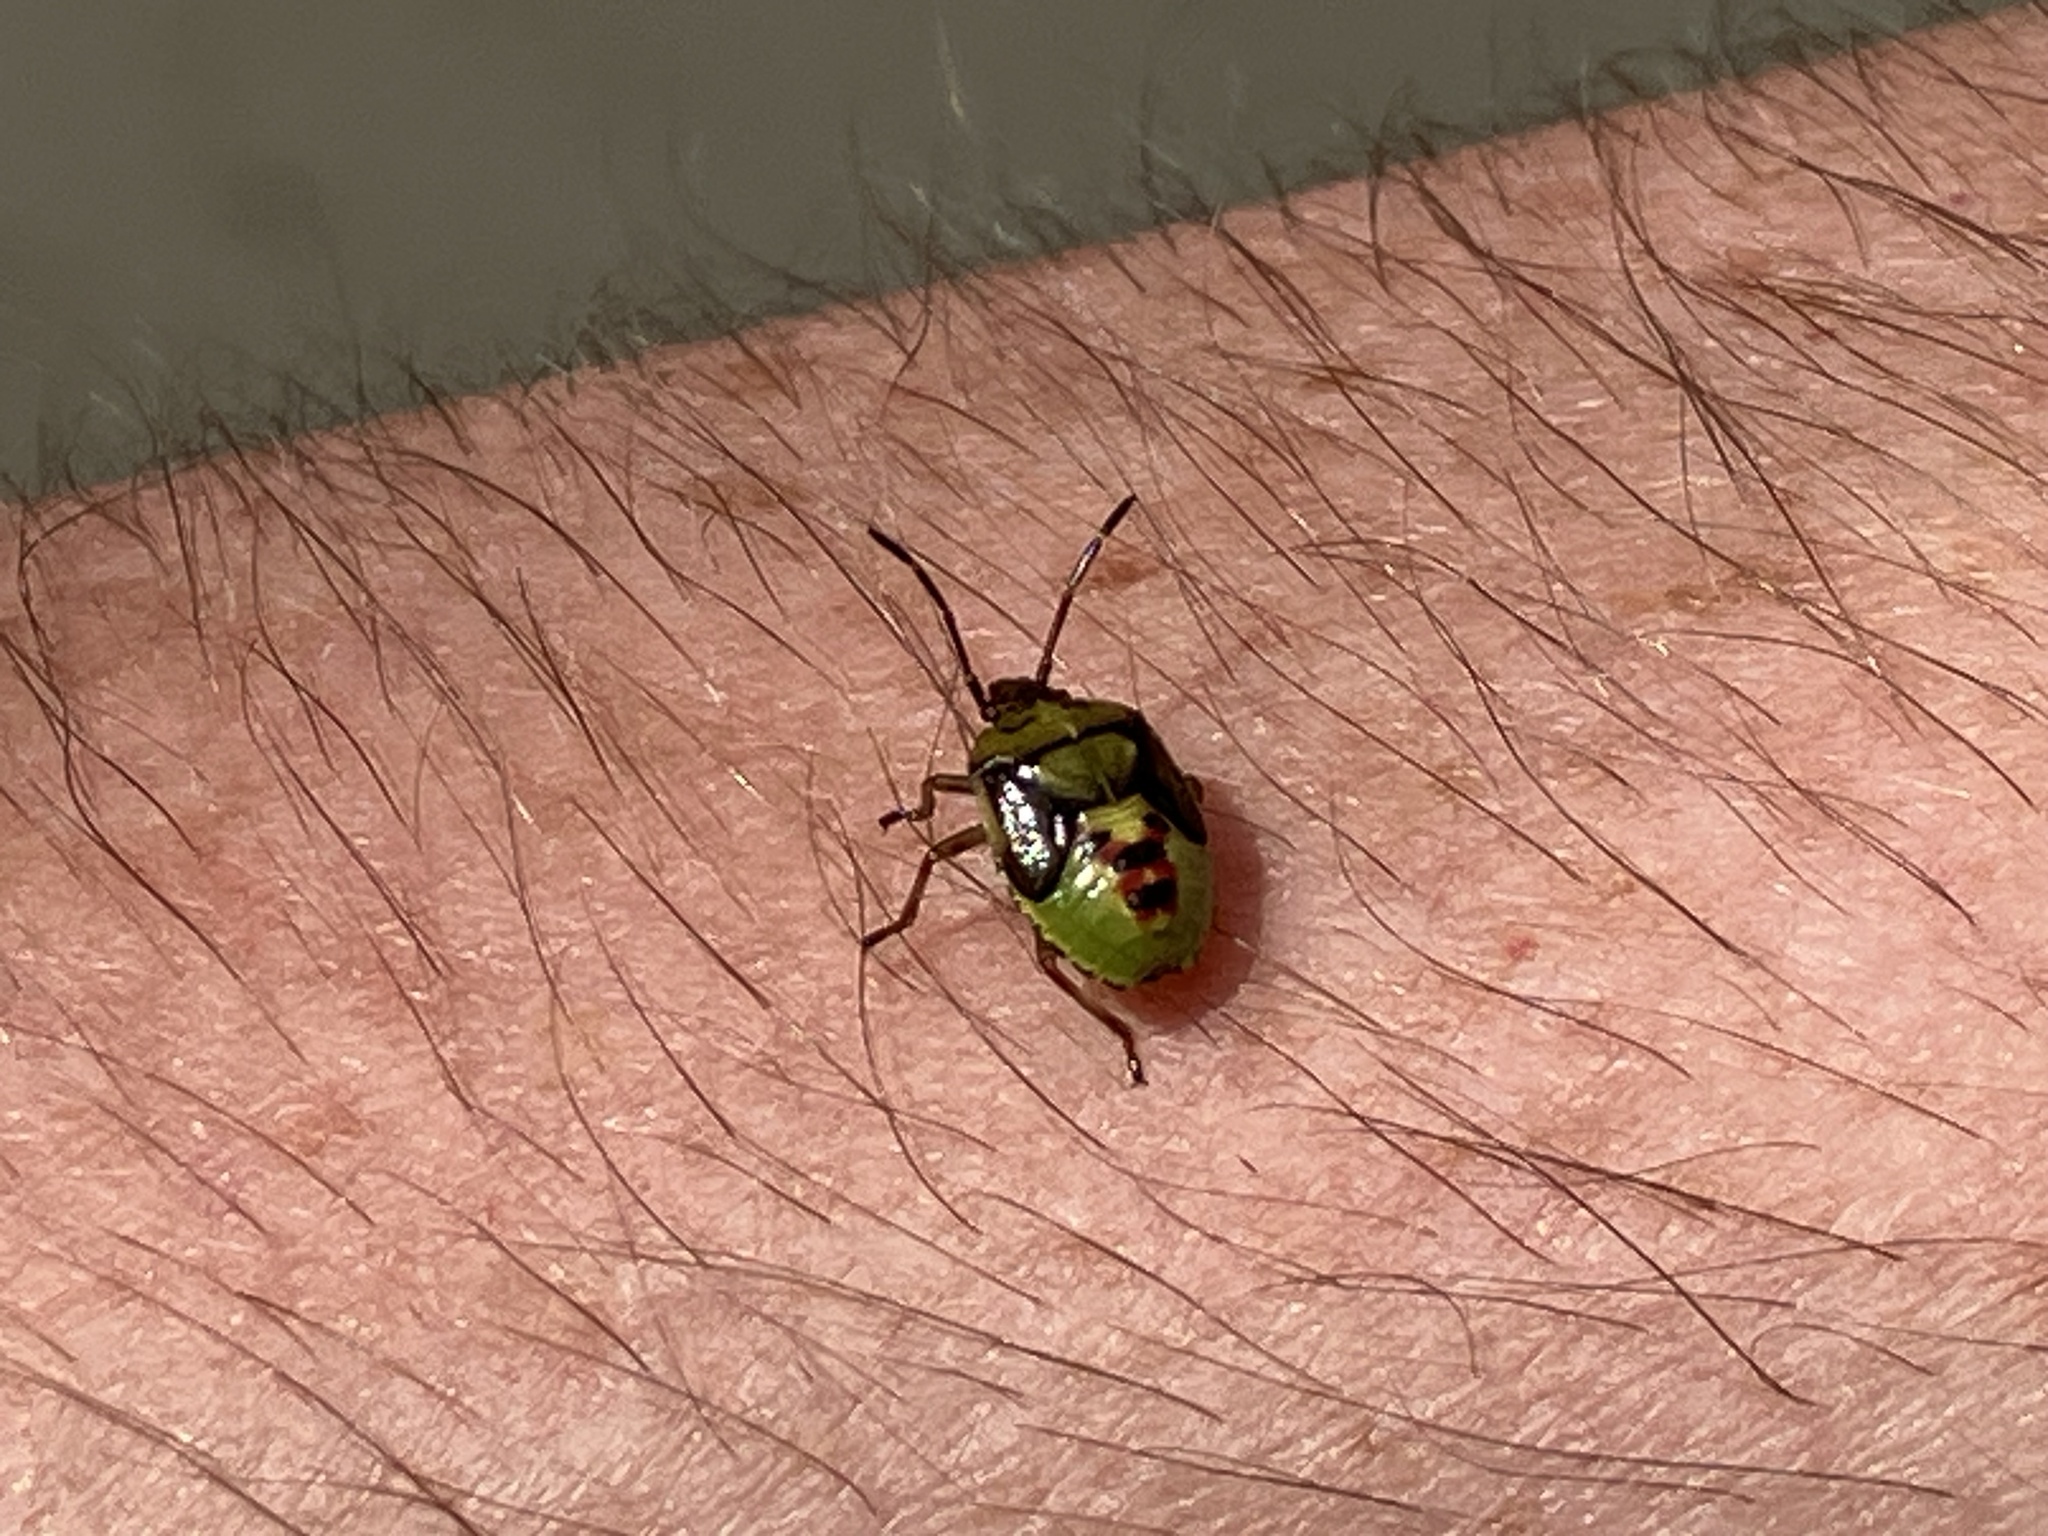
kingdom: Animalia
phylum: Arthropoda
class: Insecta
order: Hemiptera
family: Acanthosomatidae
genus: Elasmostethus
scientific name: Elasmostethus interstinctus
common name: Birch shieldbug
